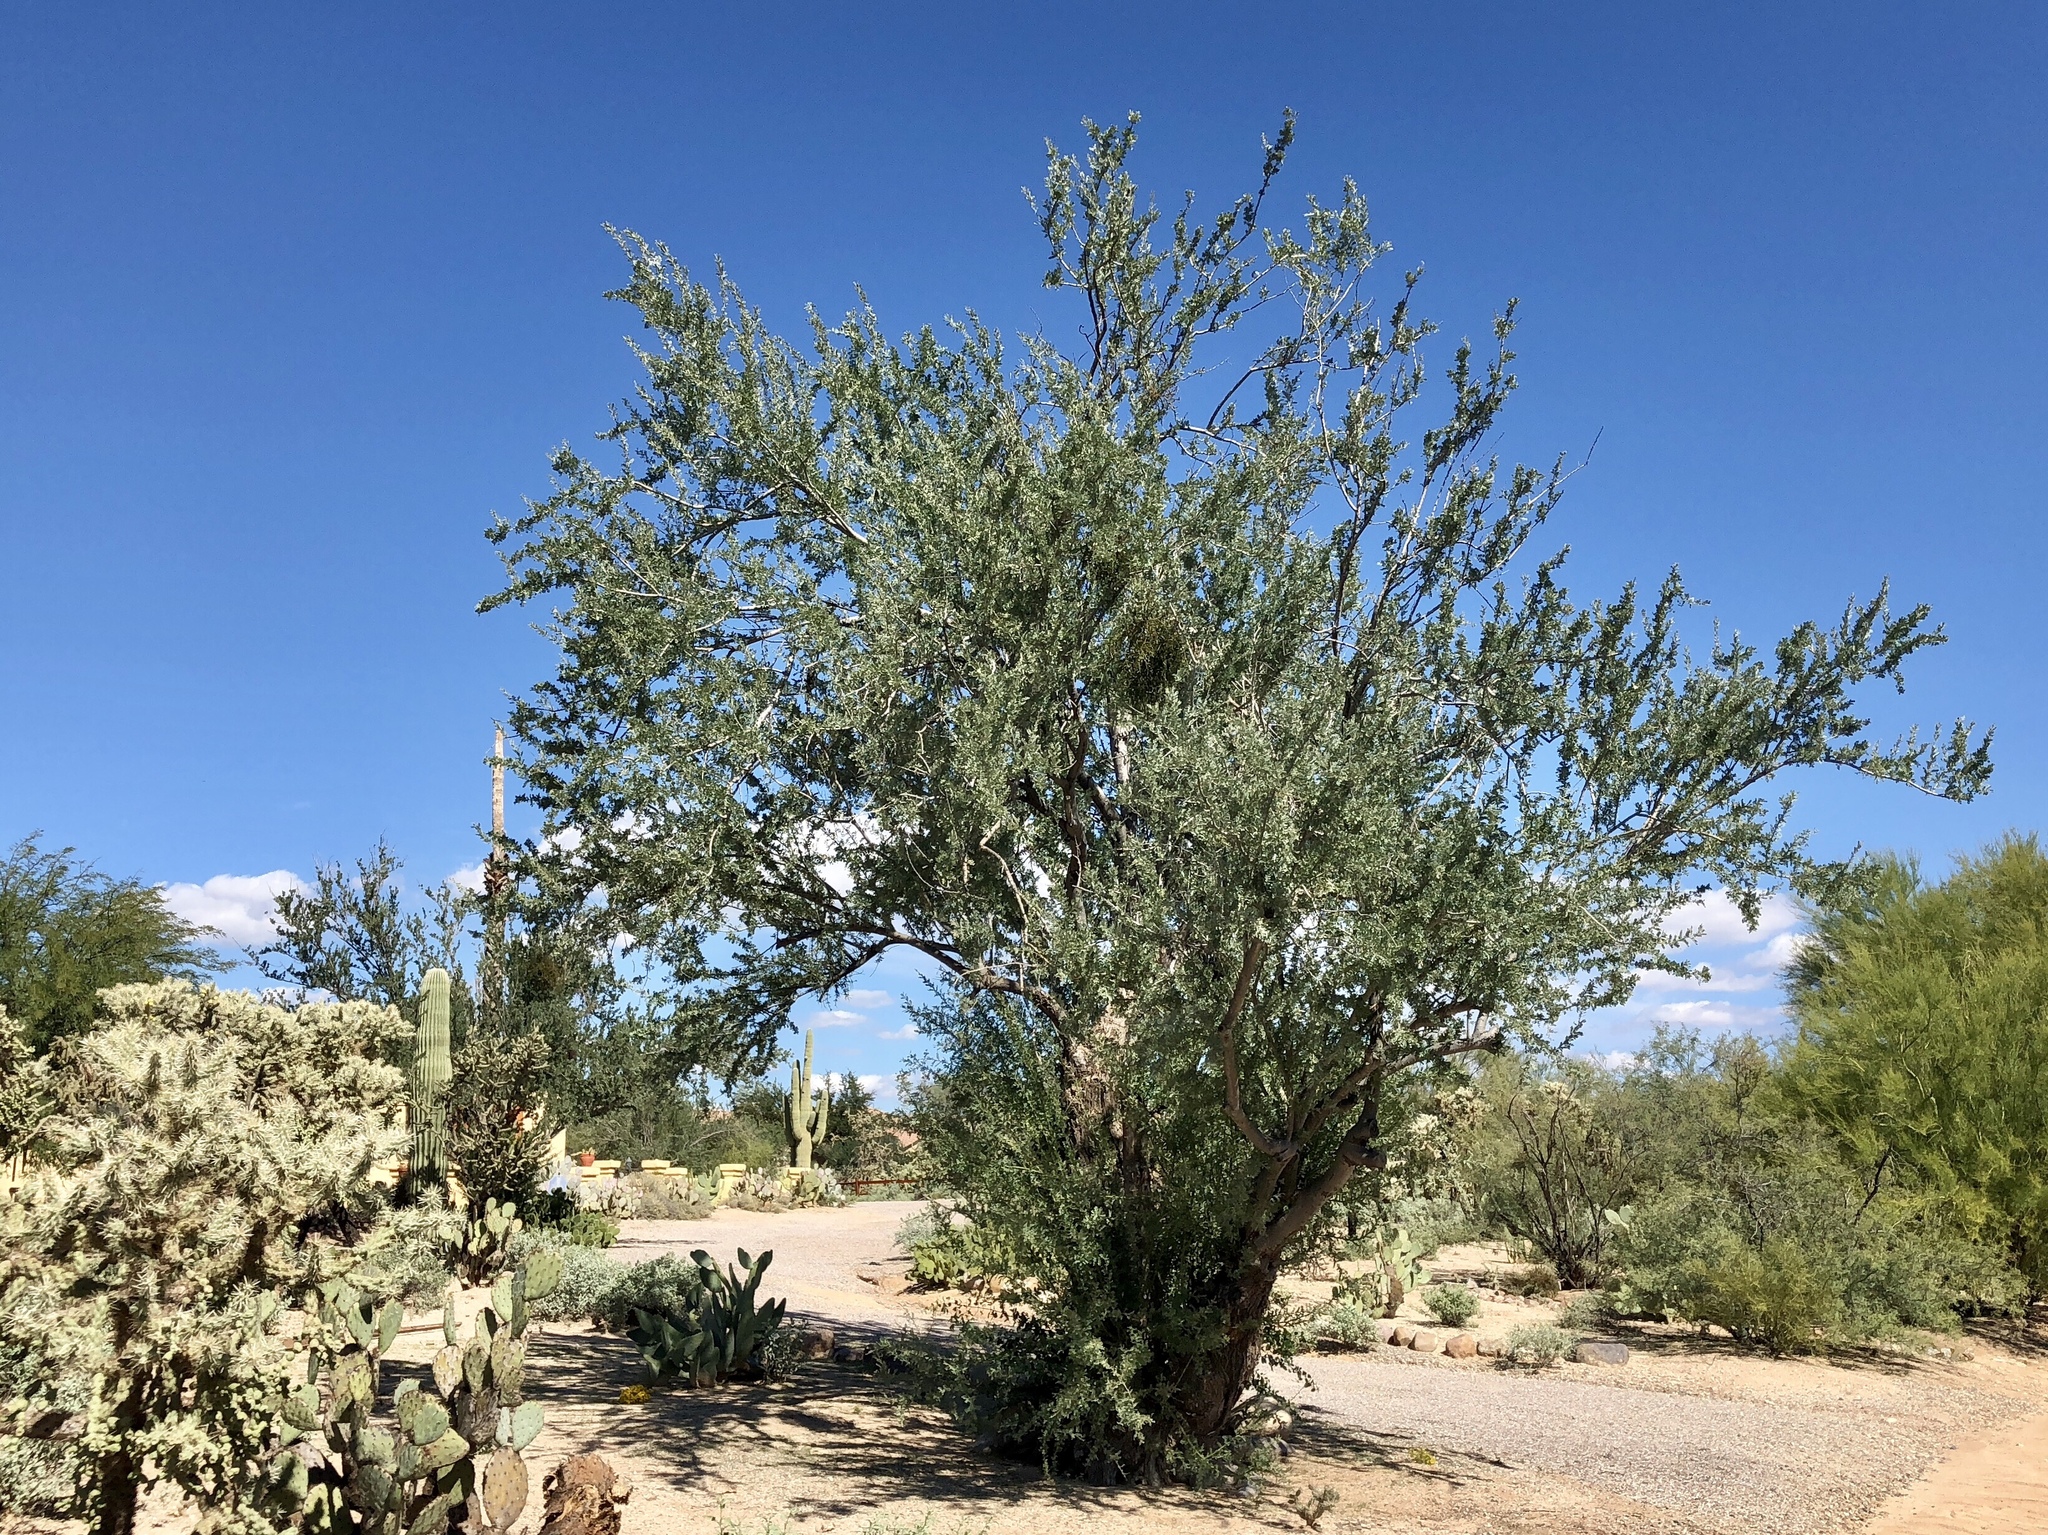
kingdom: Plantae
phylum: Tracheophyta
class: Magnoliopsida
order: Fabales
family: Fabaceae
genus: Olneya
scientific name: Olneya tesota
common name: Desert ironwood
